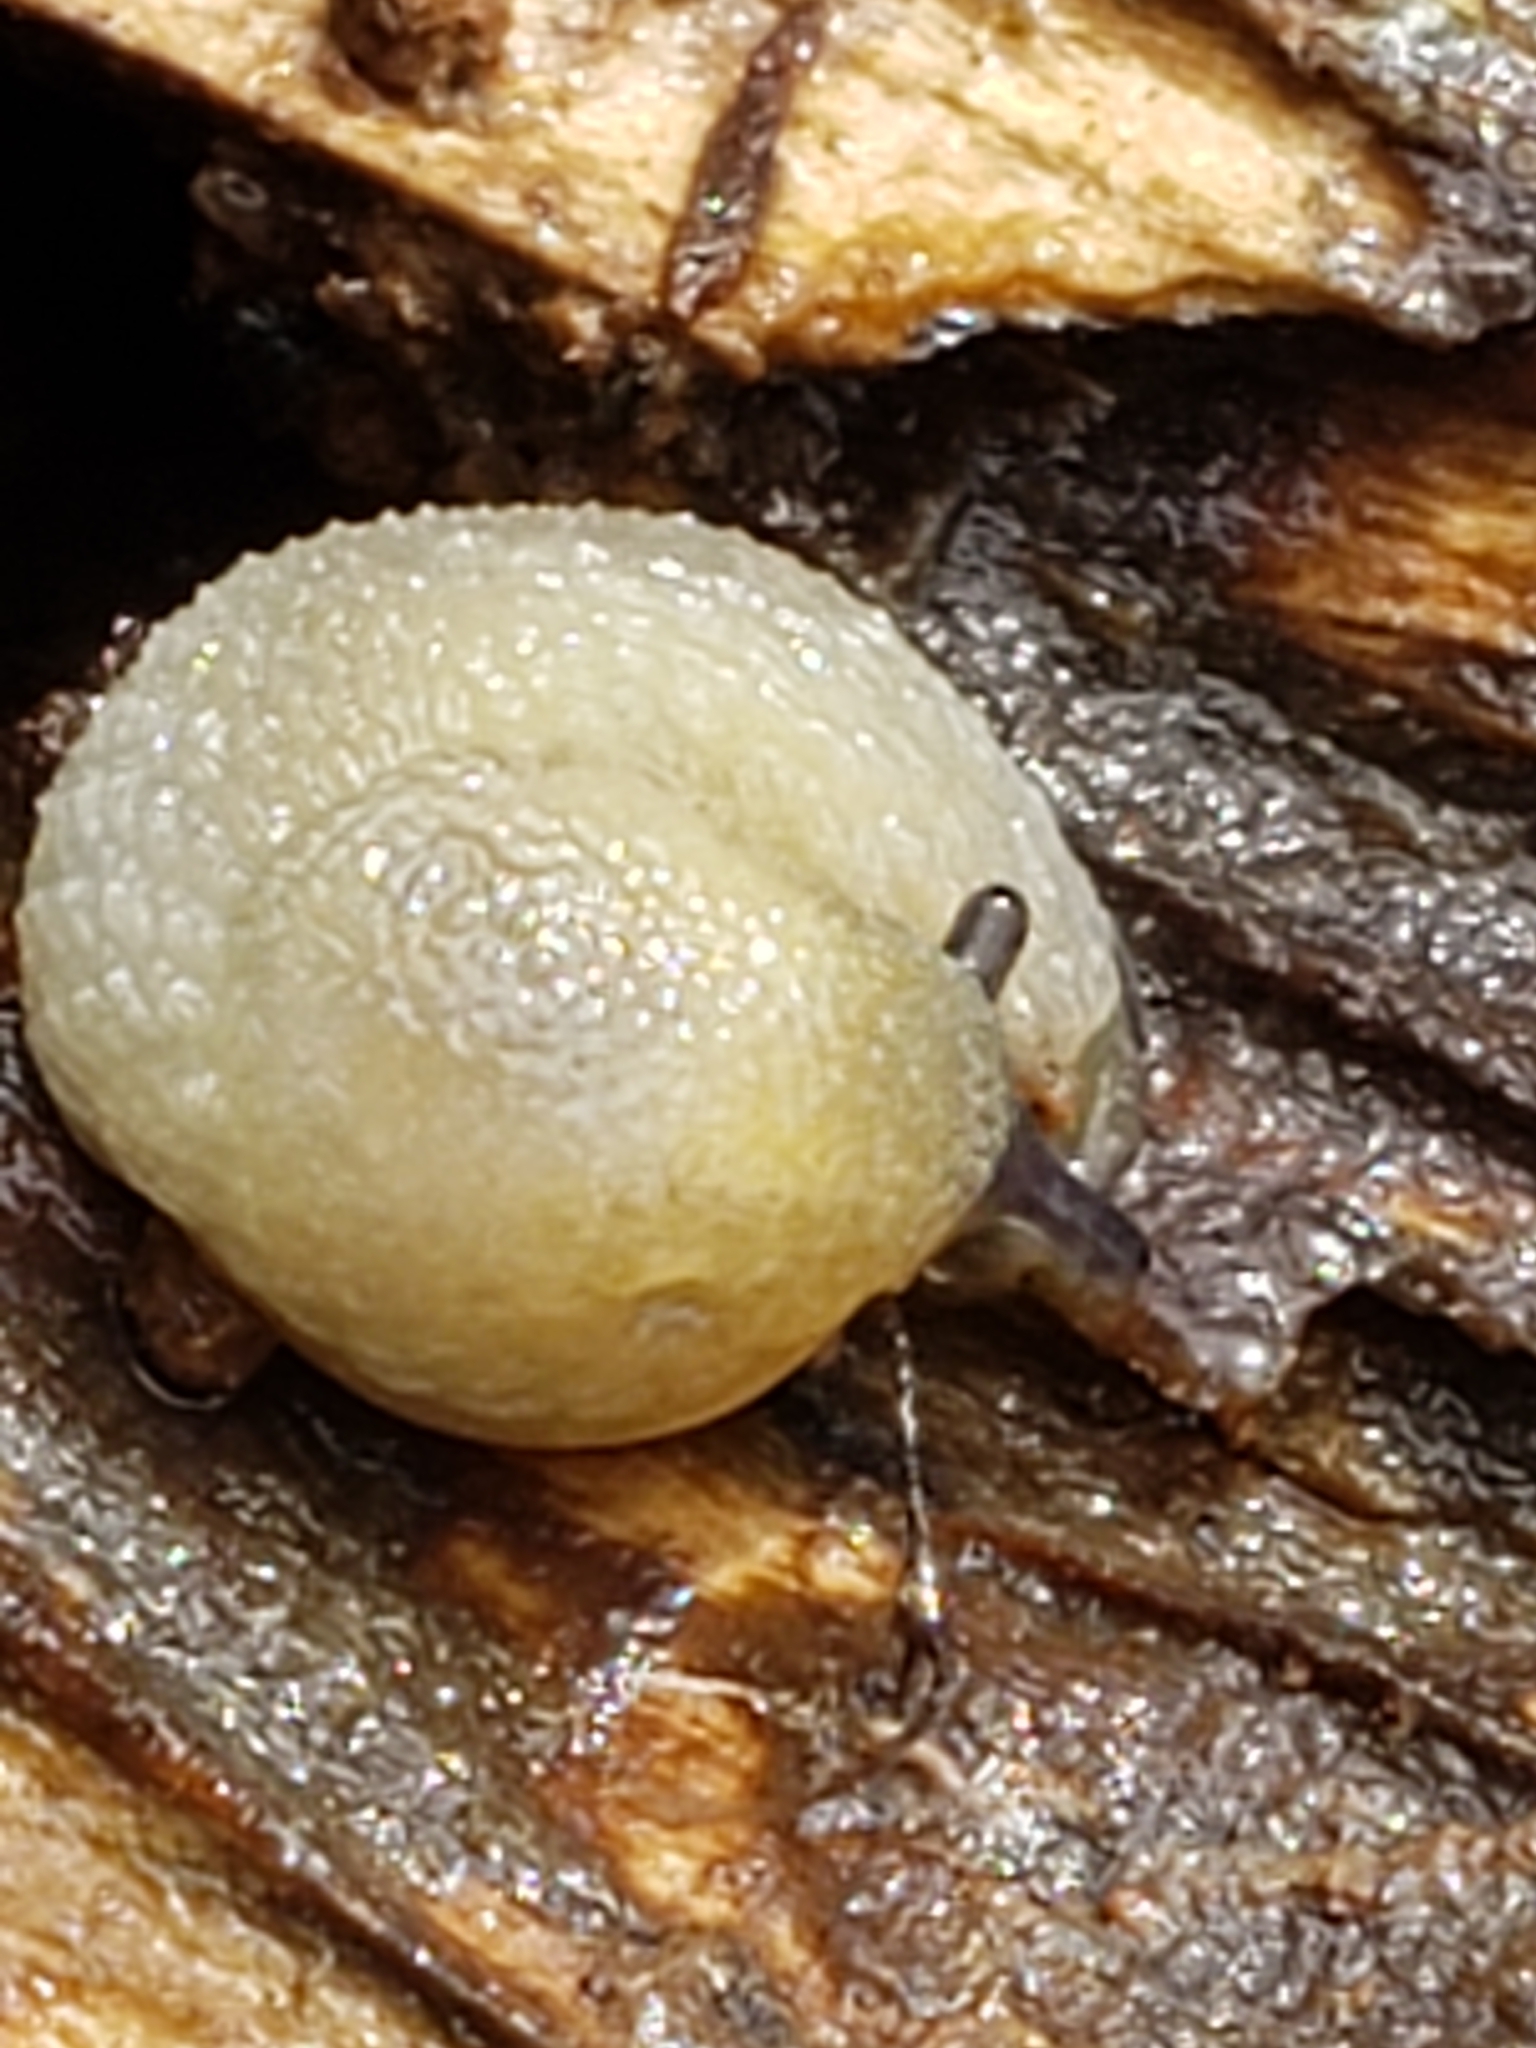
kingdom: Animalia
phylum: Mollusca
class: Gastropoda
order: Stylommatophora
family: Arionidae
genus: Arion
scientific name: Arion intermedius
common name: Hedgehog slug
